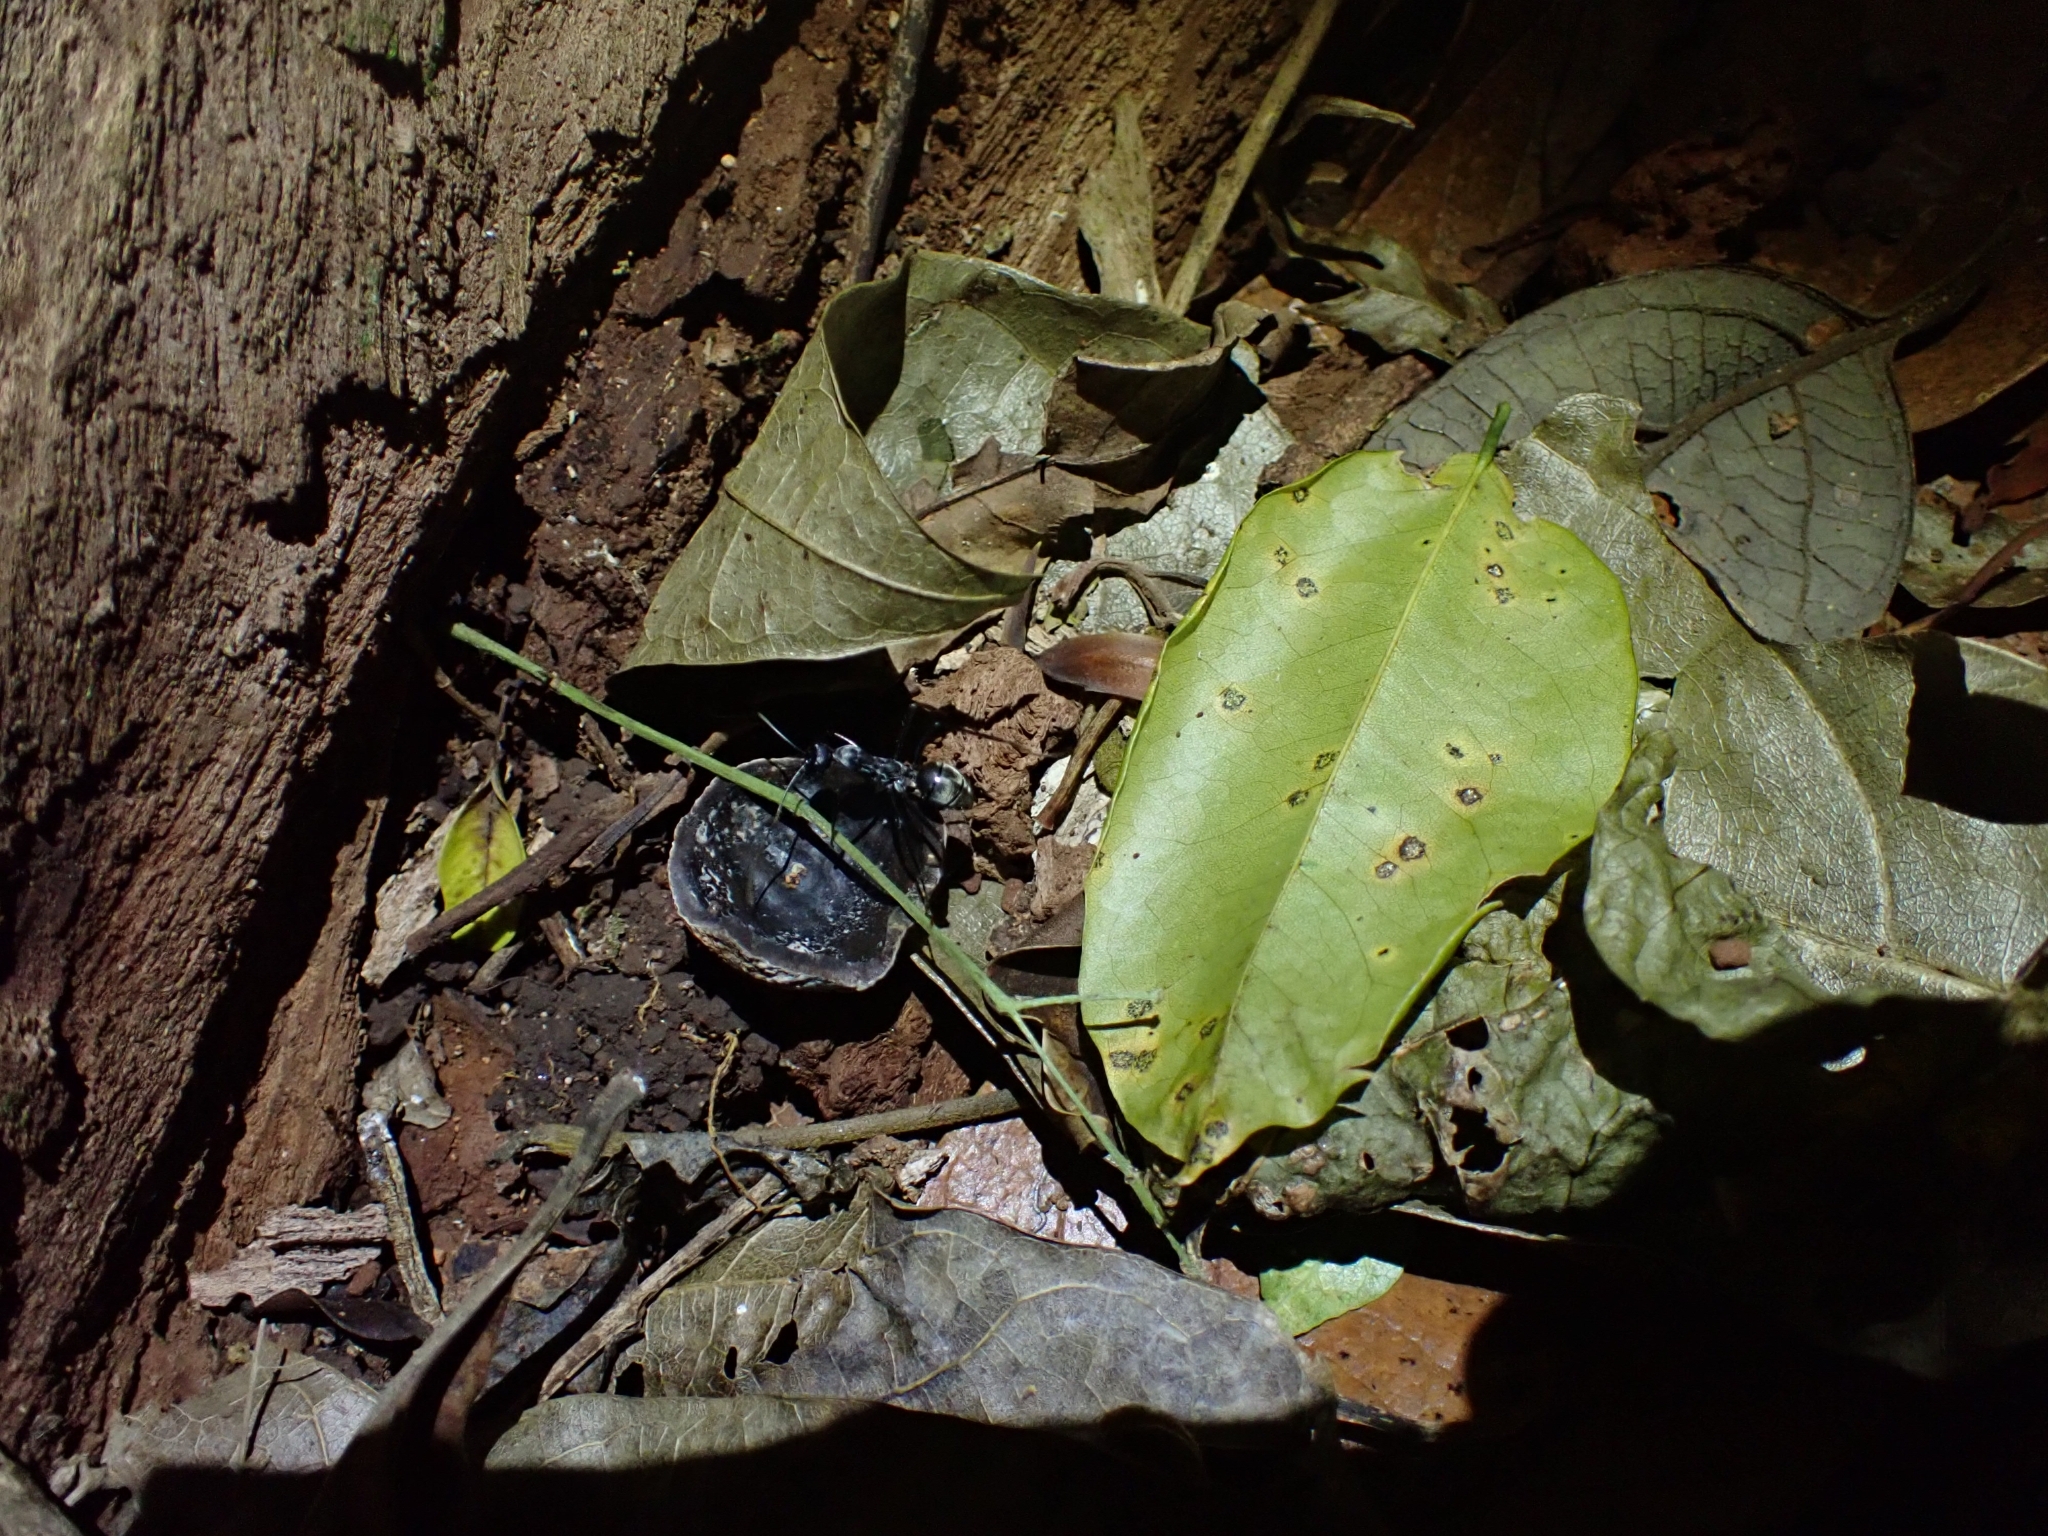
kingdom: Animalia
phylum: Arthropoda
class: Insecta
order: Hymenoptera
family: Formicidae
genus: Notostigma
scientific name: Notostigma carazzii
